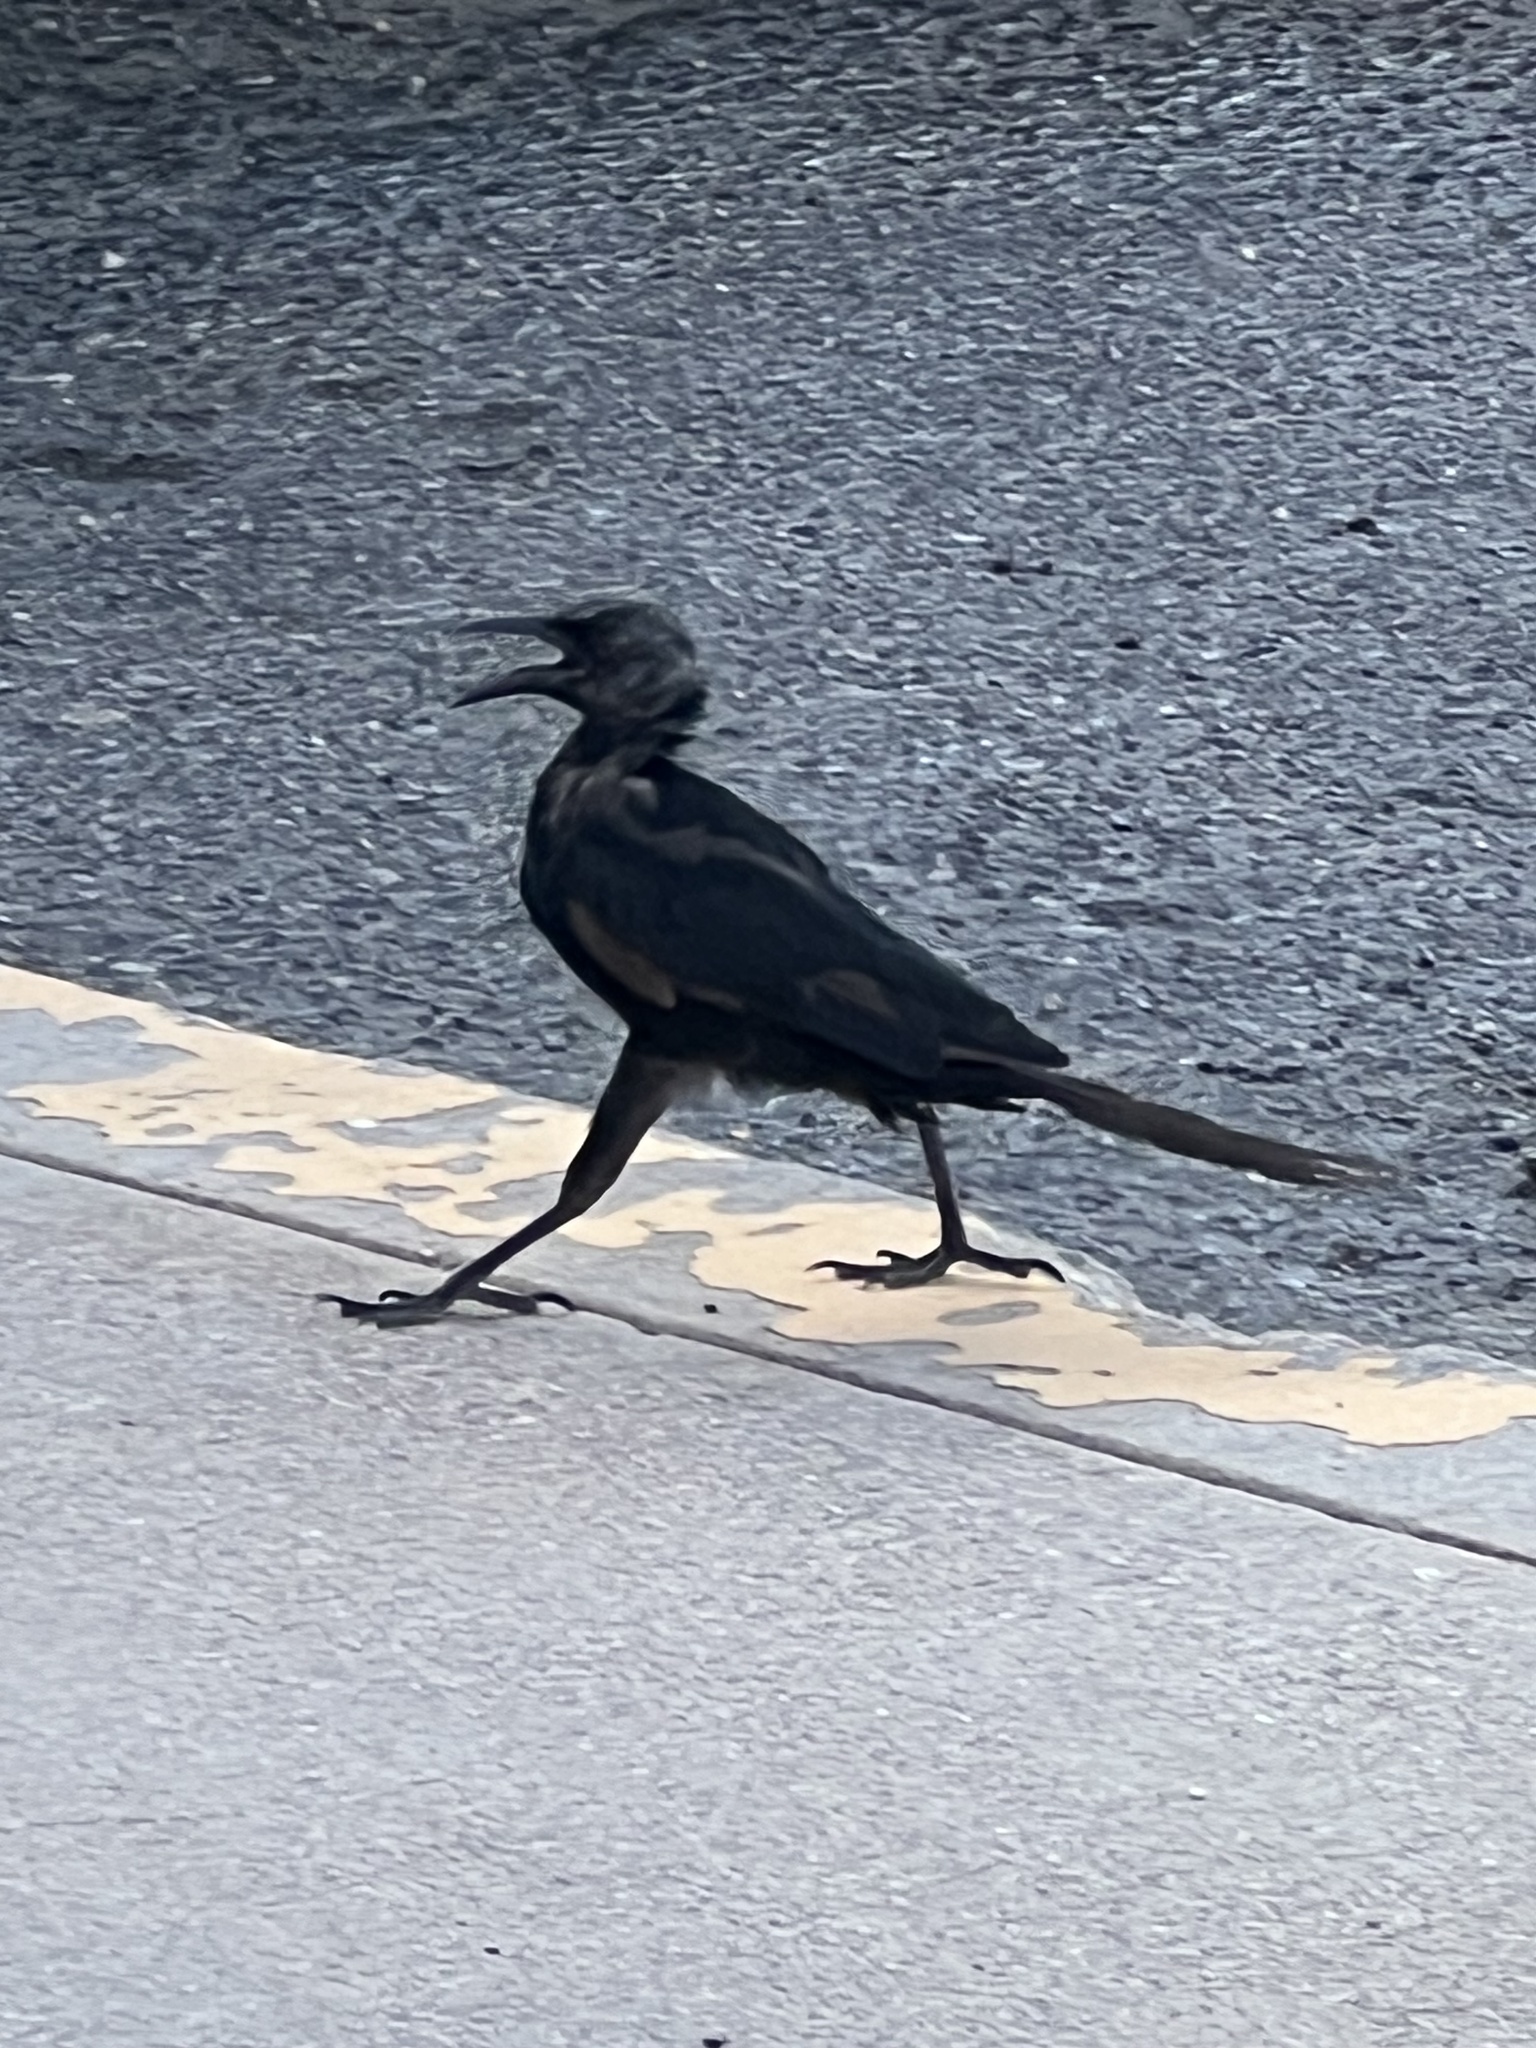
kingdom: Animalia
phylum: Chordata
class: Aves
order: Passeriformes
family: Icteridae
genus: Quiscalus
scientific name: Quiscalus mexicanus
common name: Great-tailed grackle
